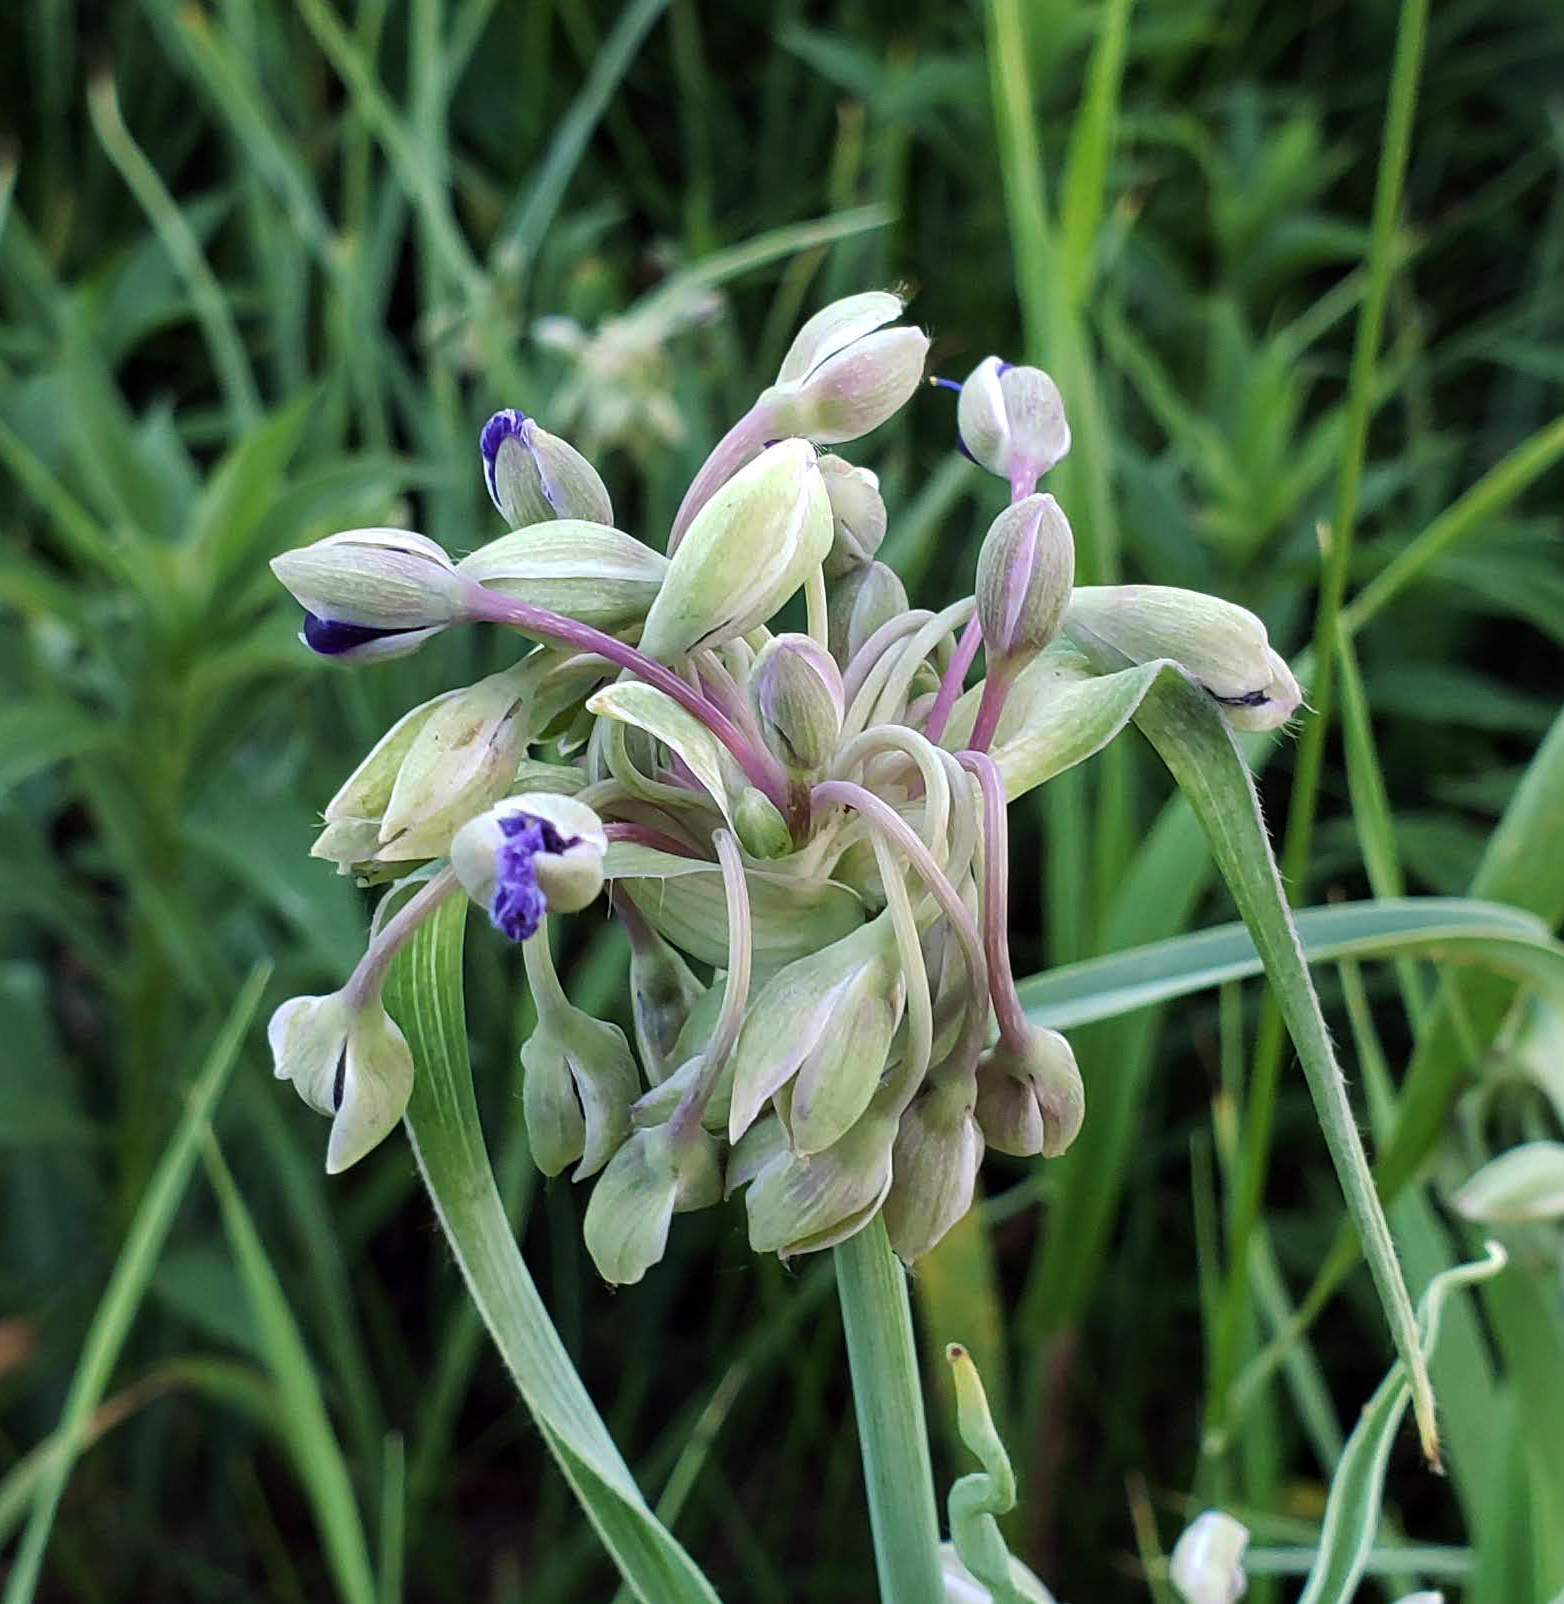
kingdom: Plantae
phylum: Tracheophyta
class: Liliopsida
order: Commelinales
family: Commelinaceae
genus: Tradescantia
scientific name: Tradescantia ohiensis
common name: Ohio spiderwort
